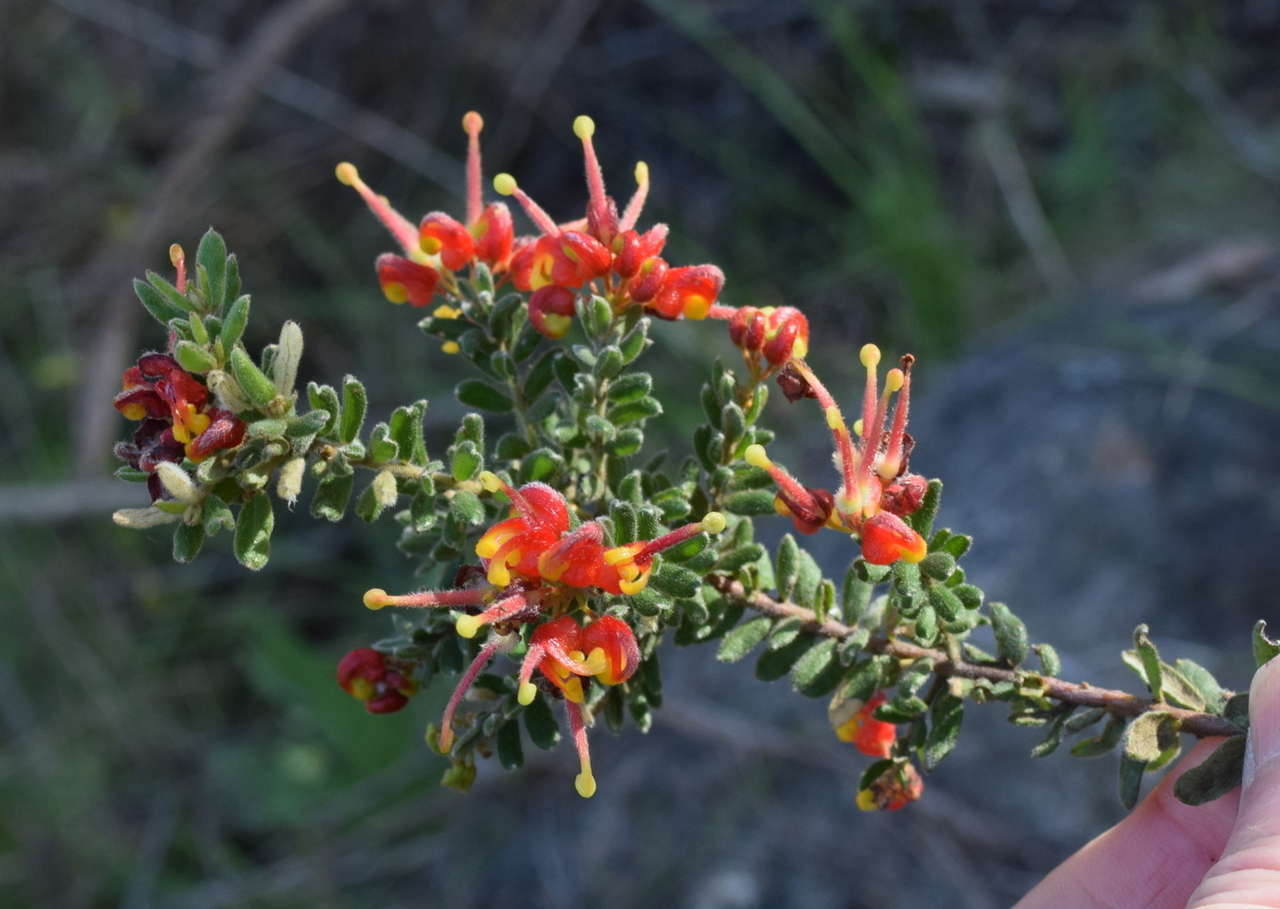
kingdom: Plantae
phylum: Tracheophyta
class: Magnoliopsida
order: Proteales
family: Proteaceae
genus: Grevillea
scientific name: Grevillea alpina
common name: Catclaws grevillea
